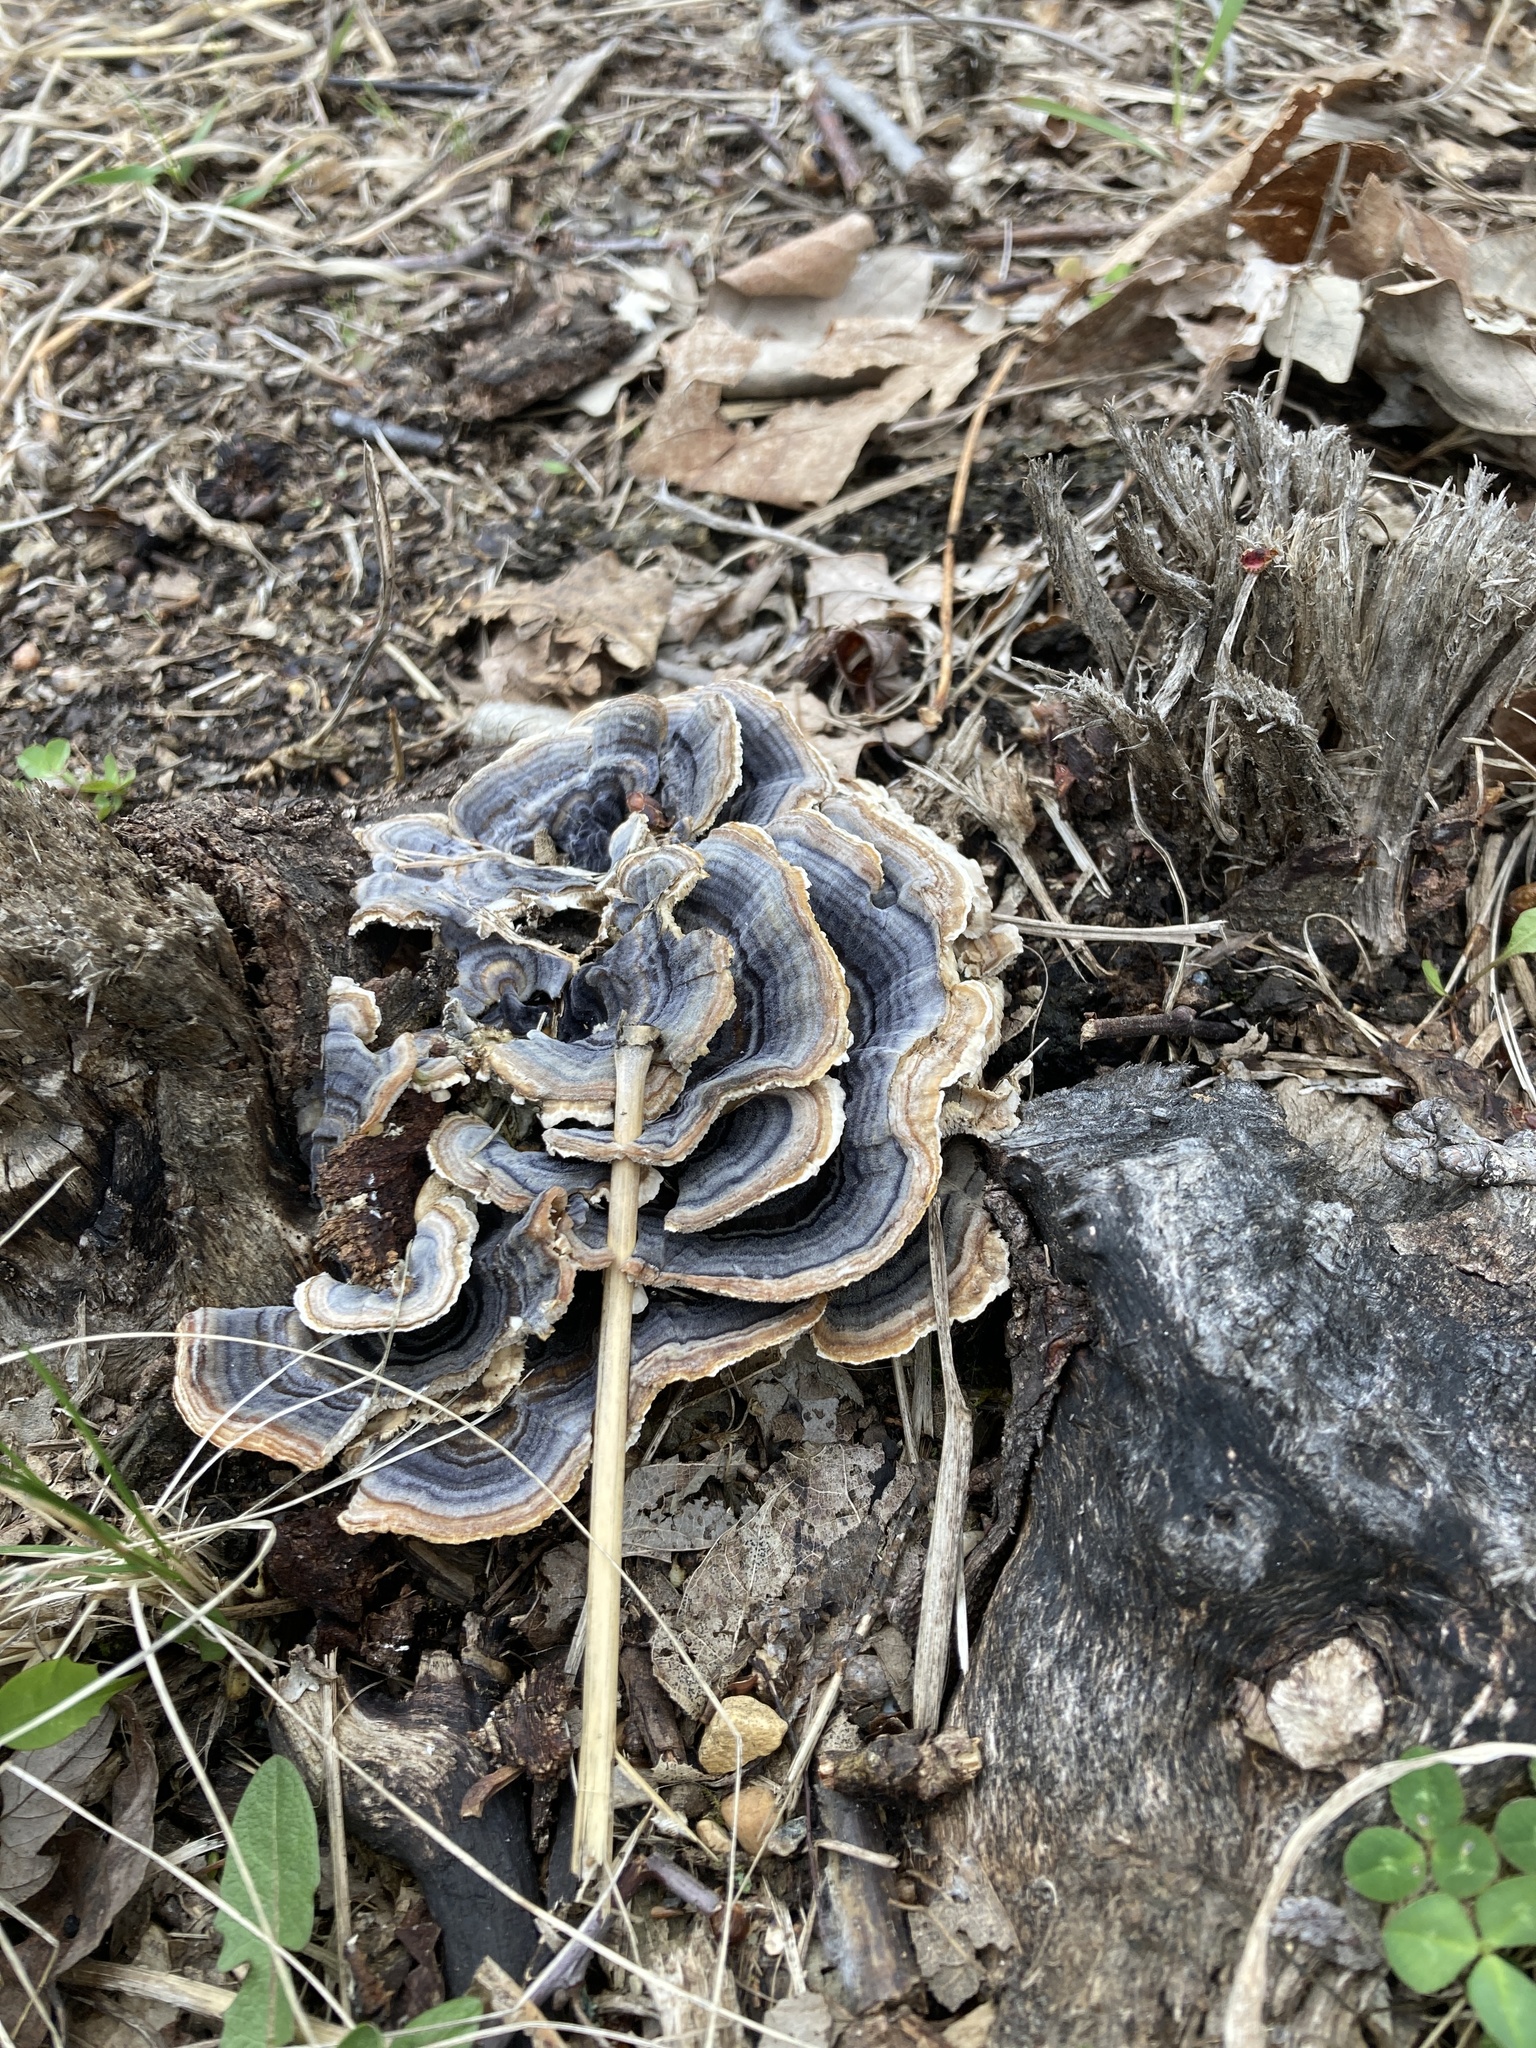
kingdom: Fungi
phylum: Basidiomycota
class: Agaricomycetes
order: Polyporales
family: Polyporaceae
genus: Trametes
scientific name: Trametes versicolor
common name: Turkeytail
